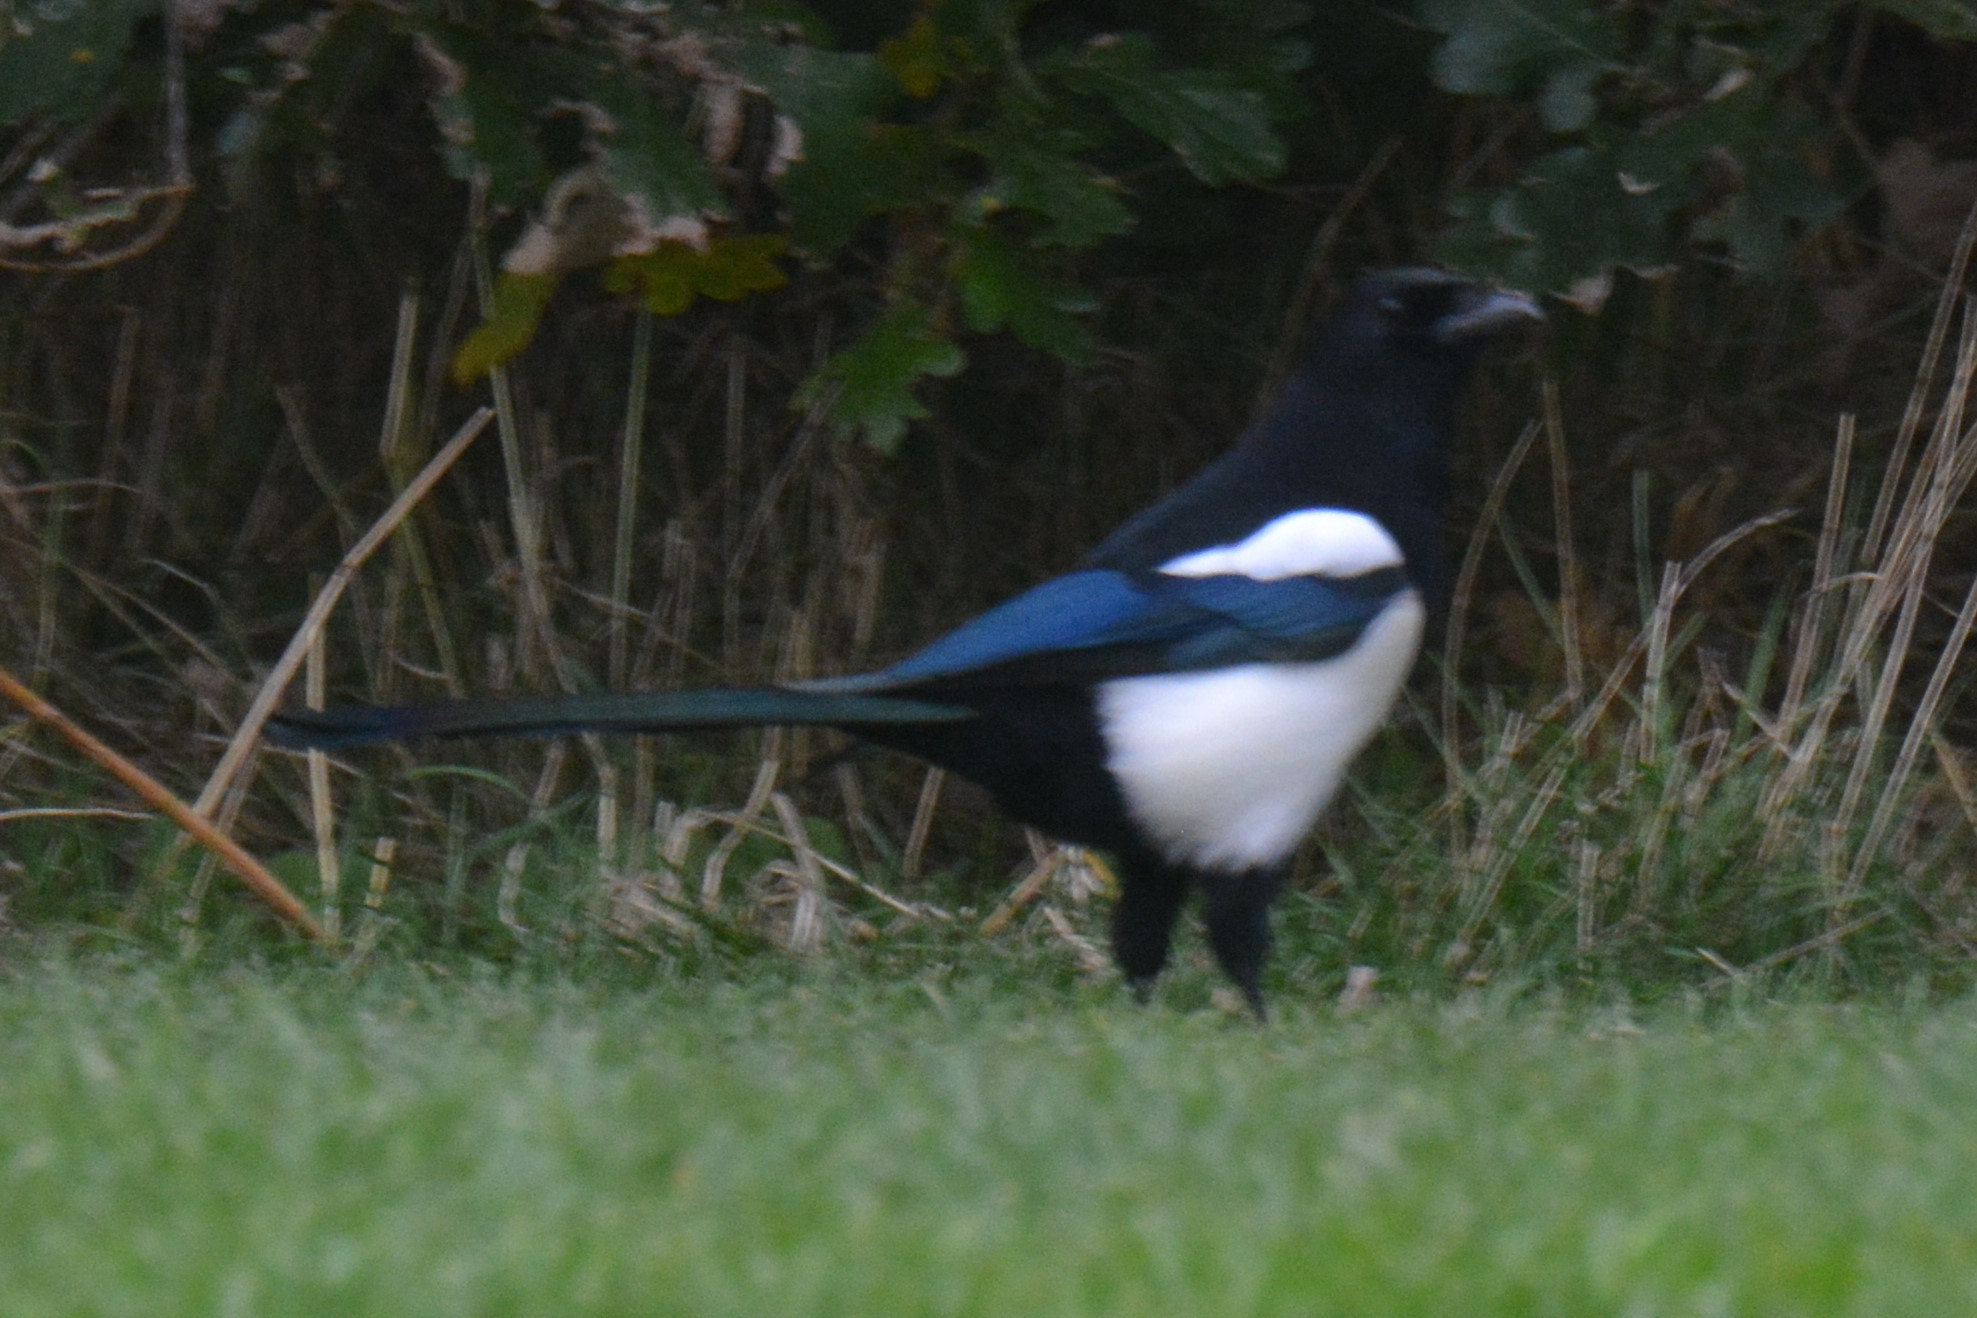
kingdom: Animalia
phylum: Chordata
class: Aves
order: Passeriformes
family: Corvidae
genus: Pica
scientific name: Pica pica
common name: Eurasian magpie
